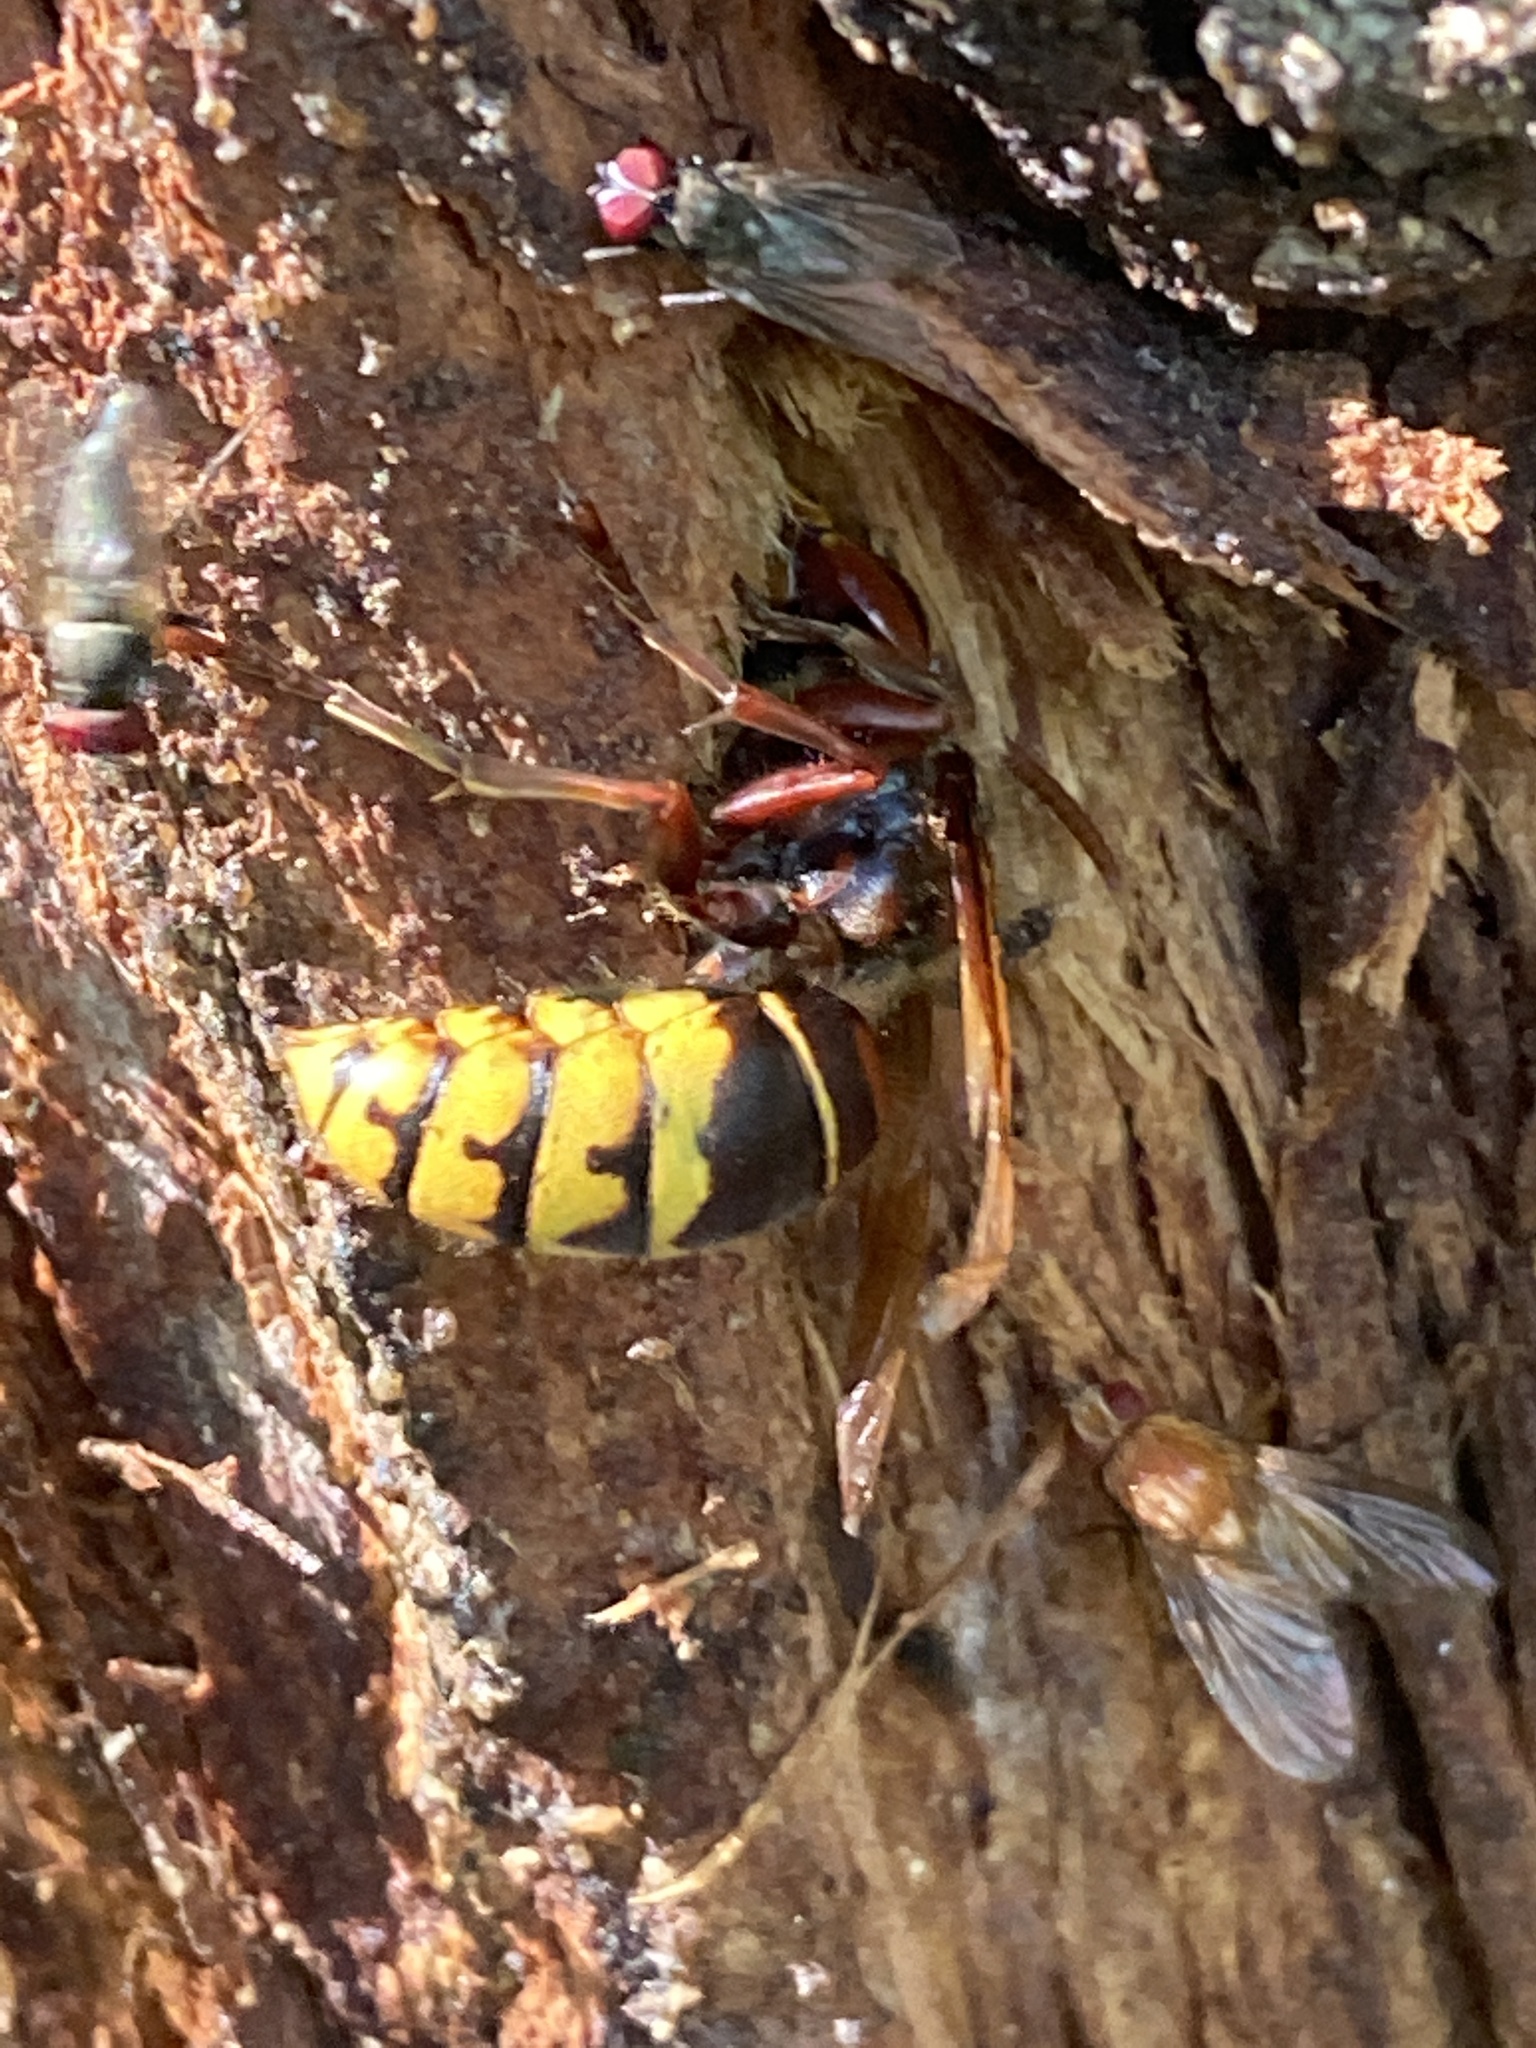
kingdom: Animalia
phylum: Arthropoda
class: Insecta
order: Hymenoptera
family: Vespidae
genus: Vespa
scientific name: Vespa crabro
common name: Hornet
